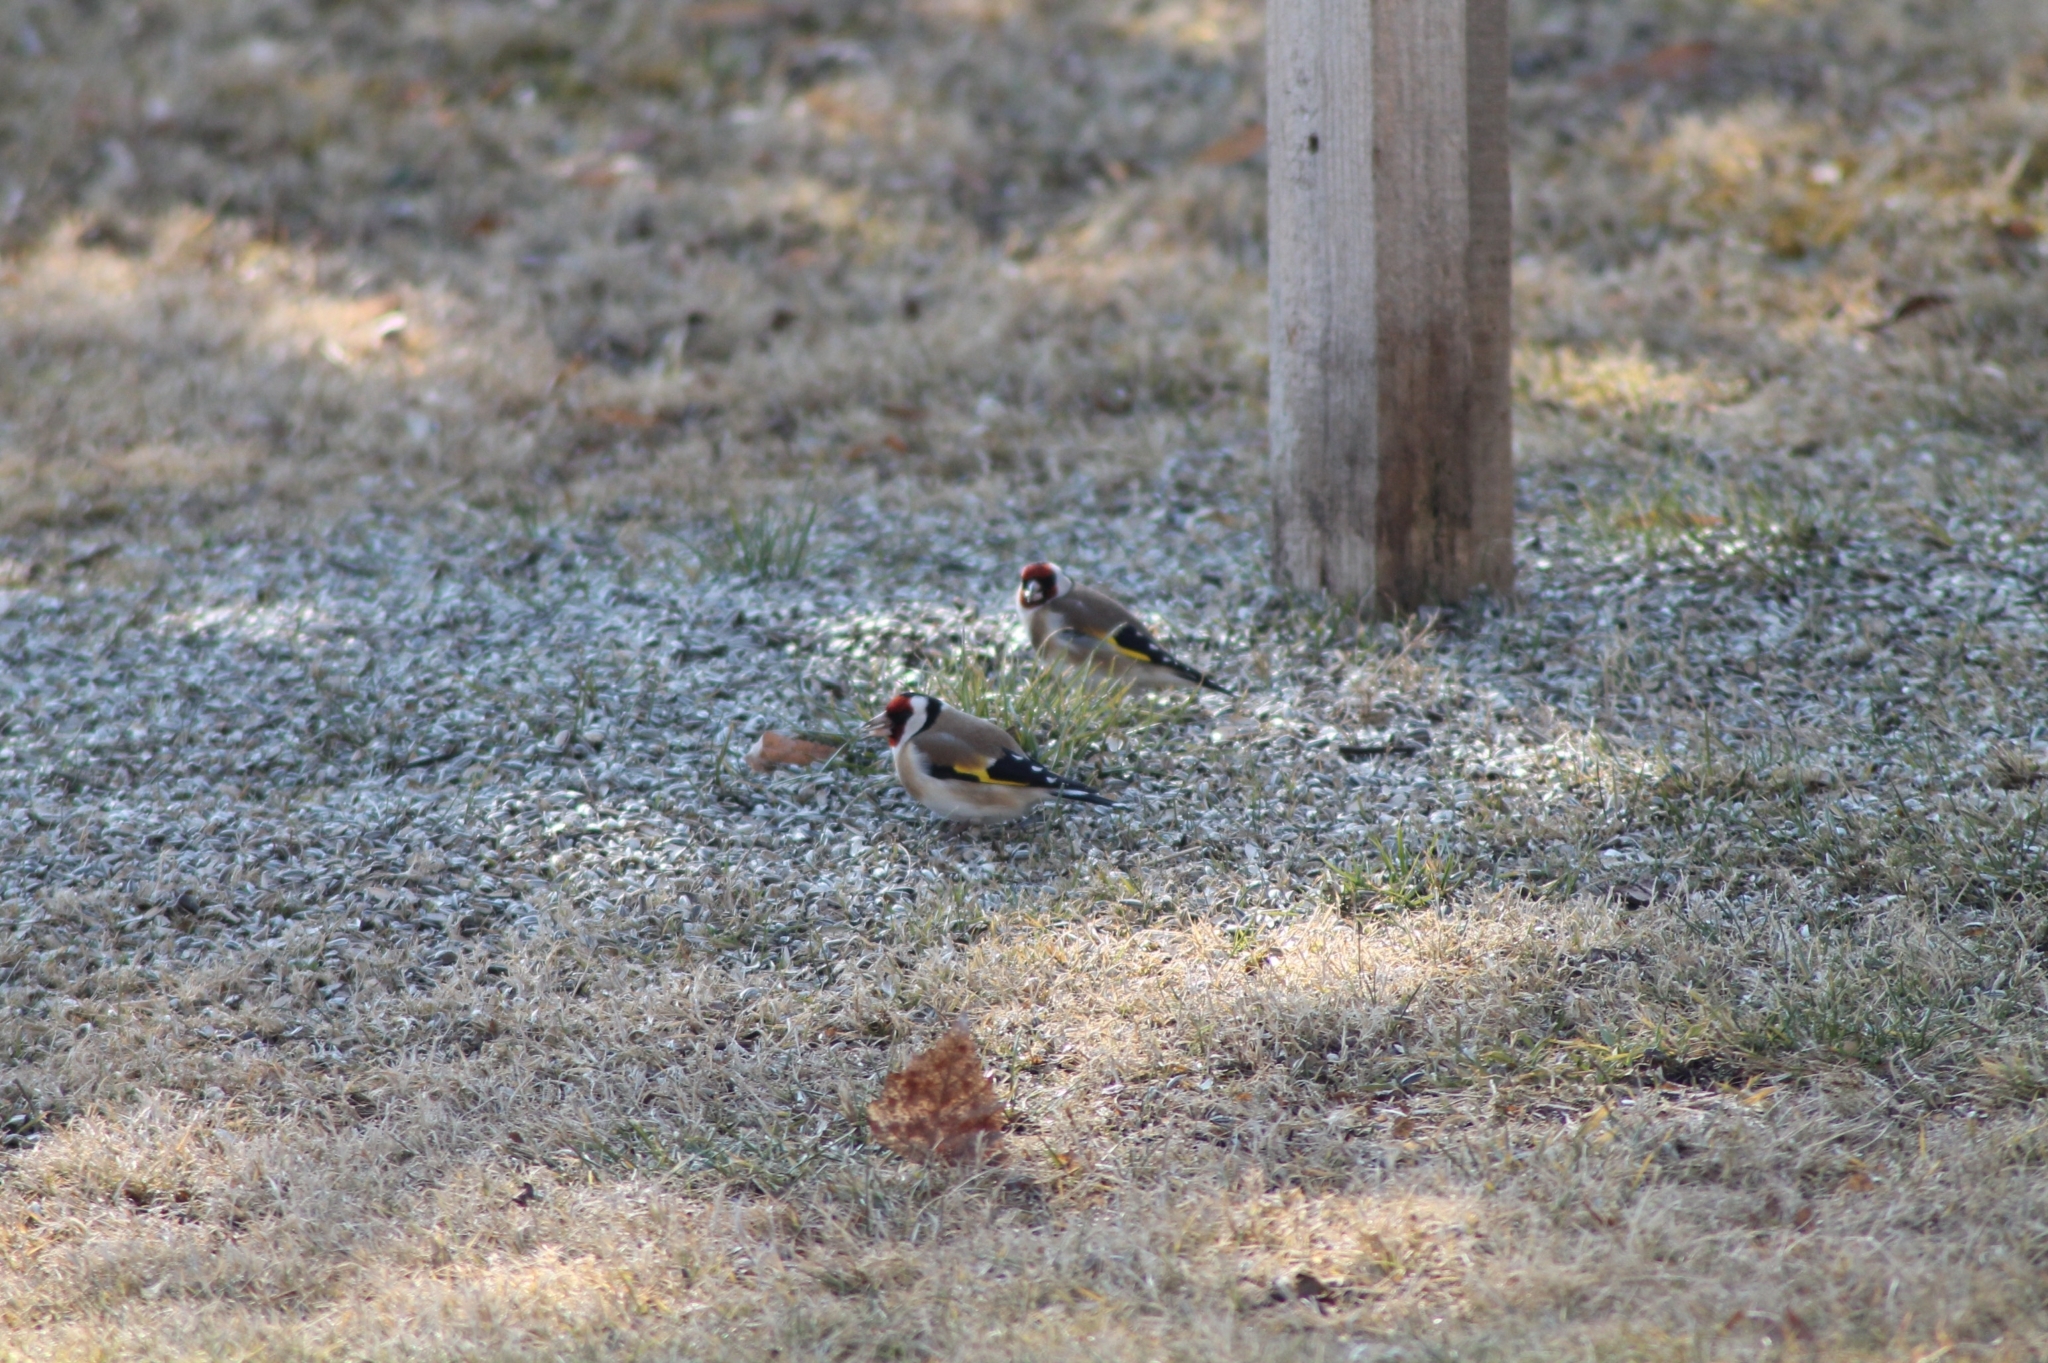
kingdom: Animalia
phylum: Chordata
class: Aves
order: Passeriformes
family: Fringillidae
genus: Carduelis
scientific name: Carduelis carduelis
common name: European goldfinch
